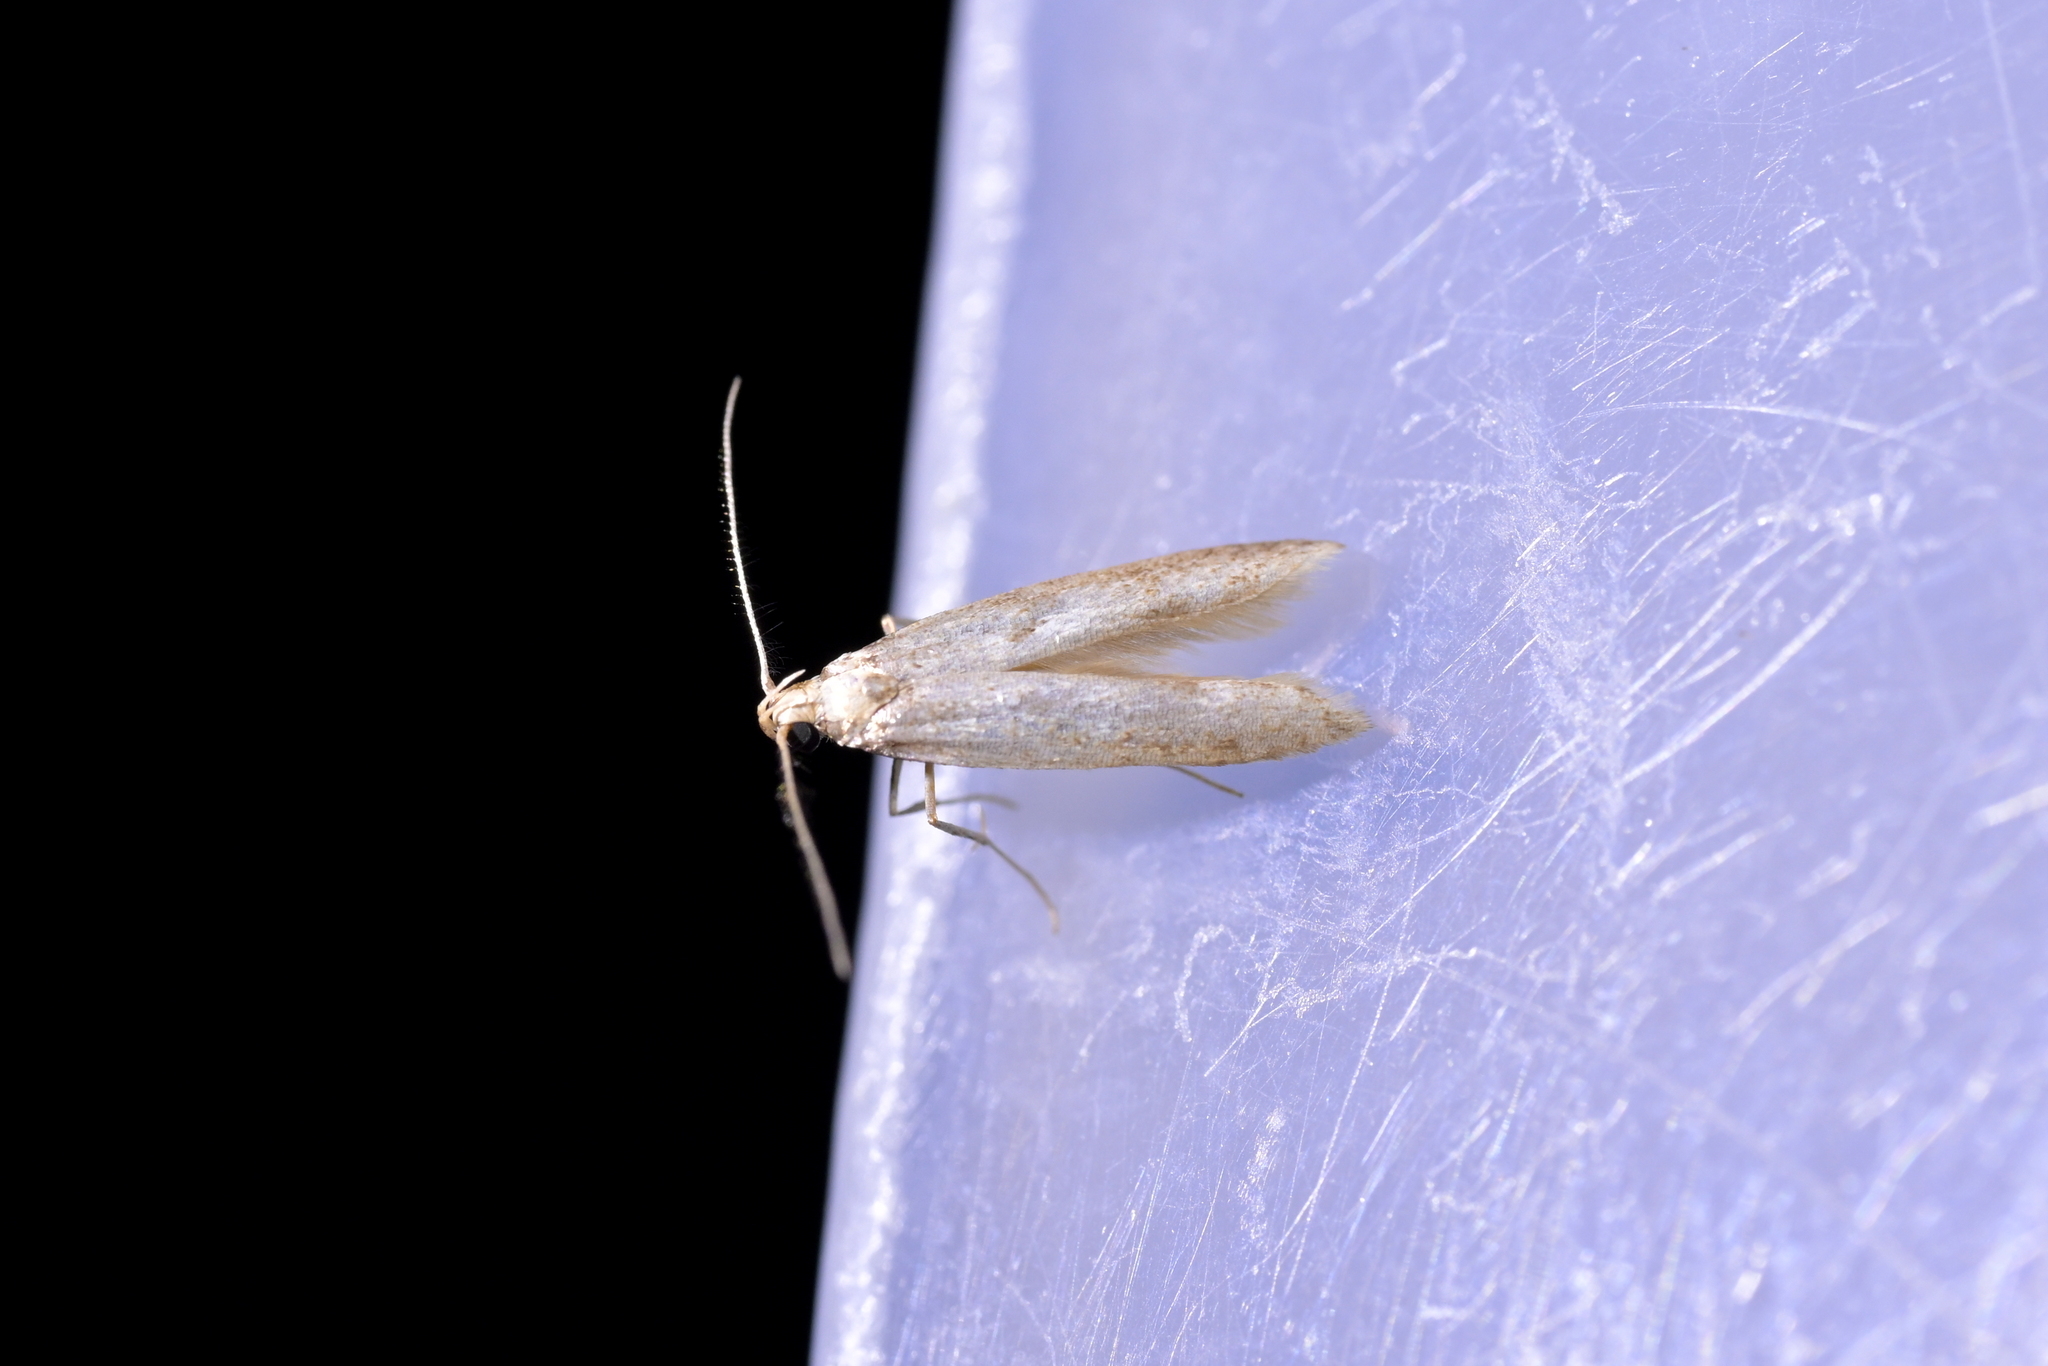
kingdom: Animalia
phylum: Arthropoda
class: Insecta
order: Lepidoptera
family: Gelechiidae
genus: Thiotricha
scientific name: Thiotricha tetraphala
